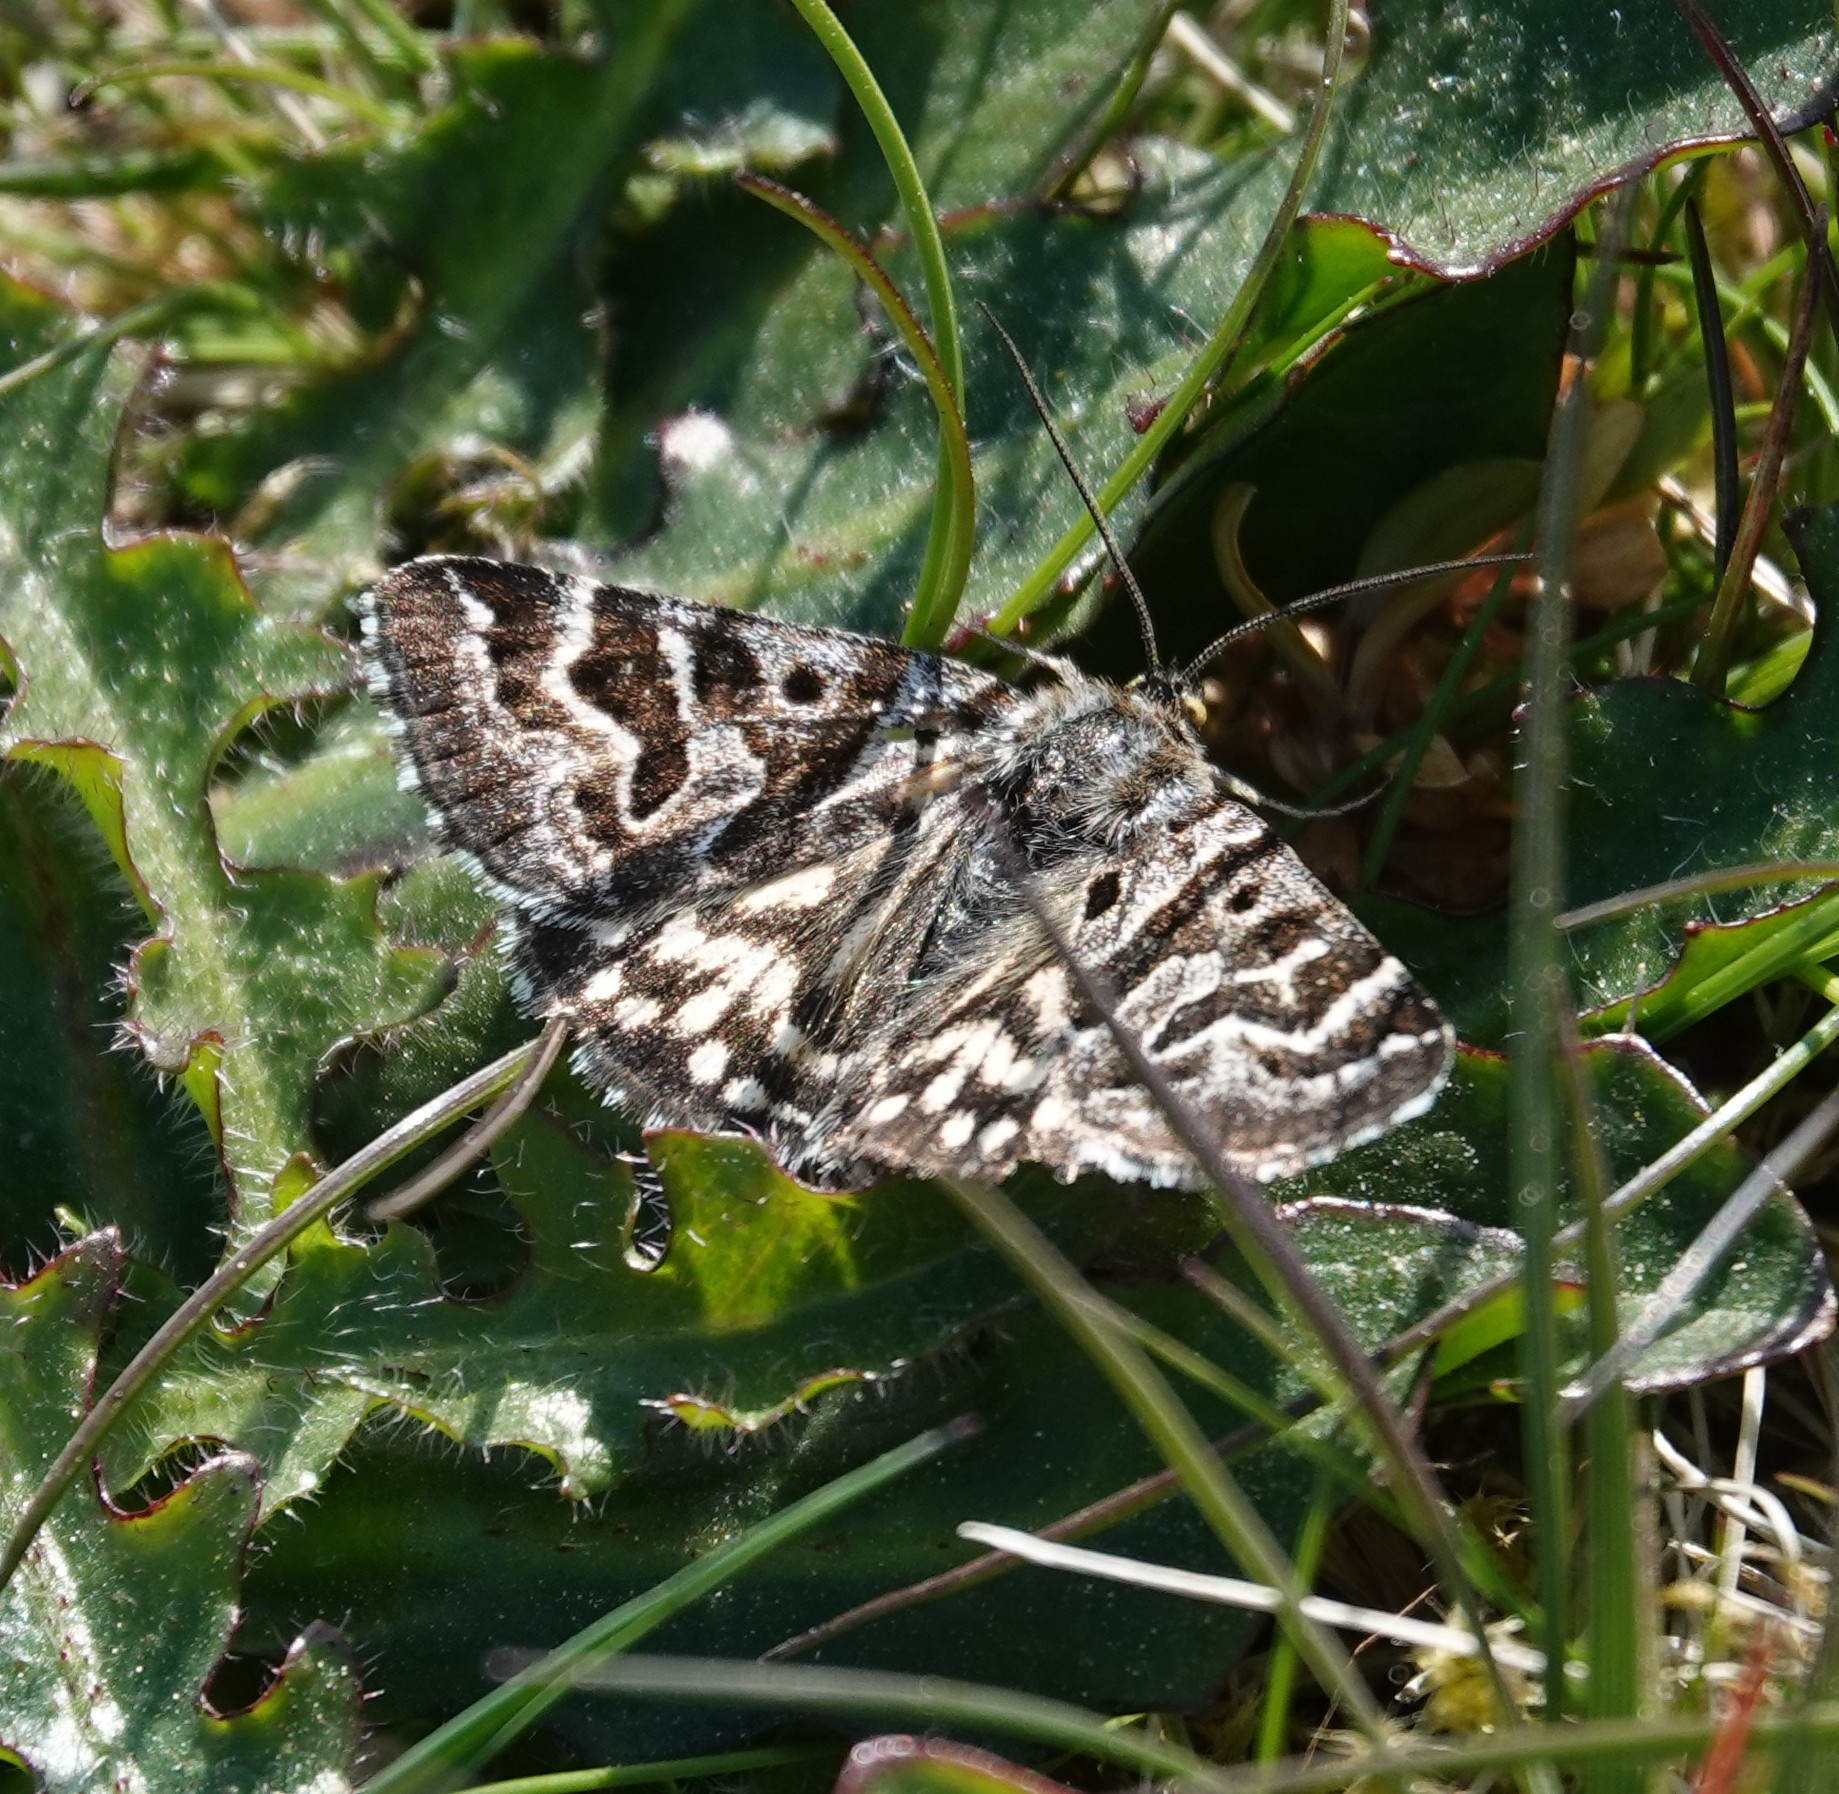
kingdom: Animalia
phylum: Arthropoda
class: Insecta
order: Lepidoptera
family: Erebidae
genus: Callistege
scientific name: Callistege mi
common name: Mother shipton
